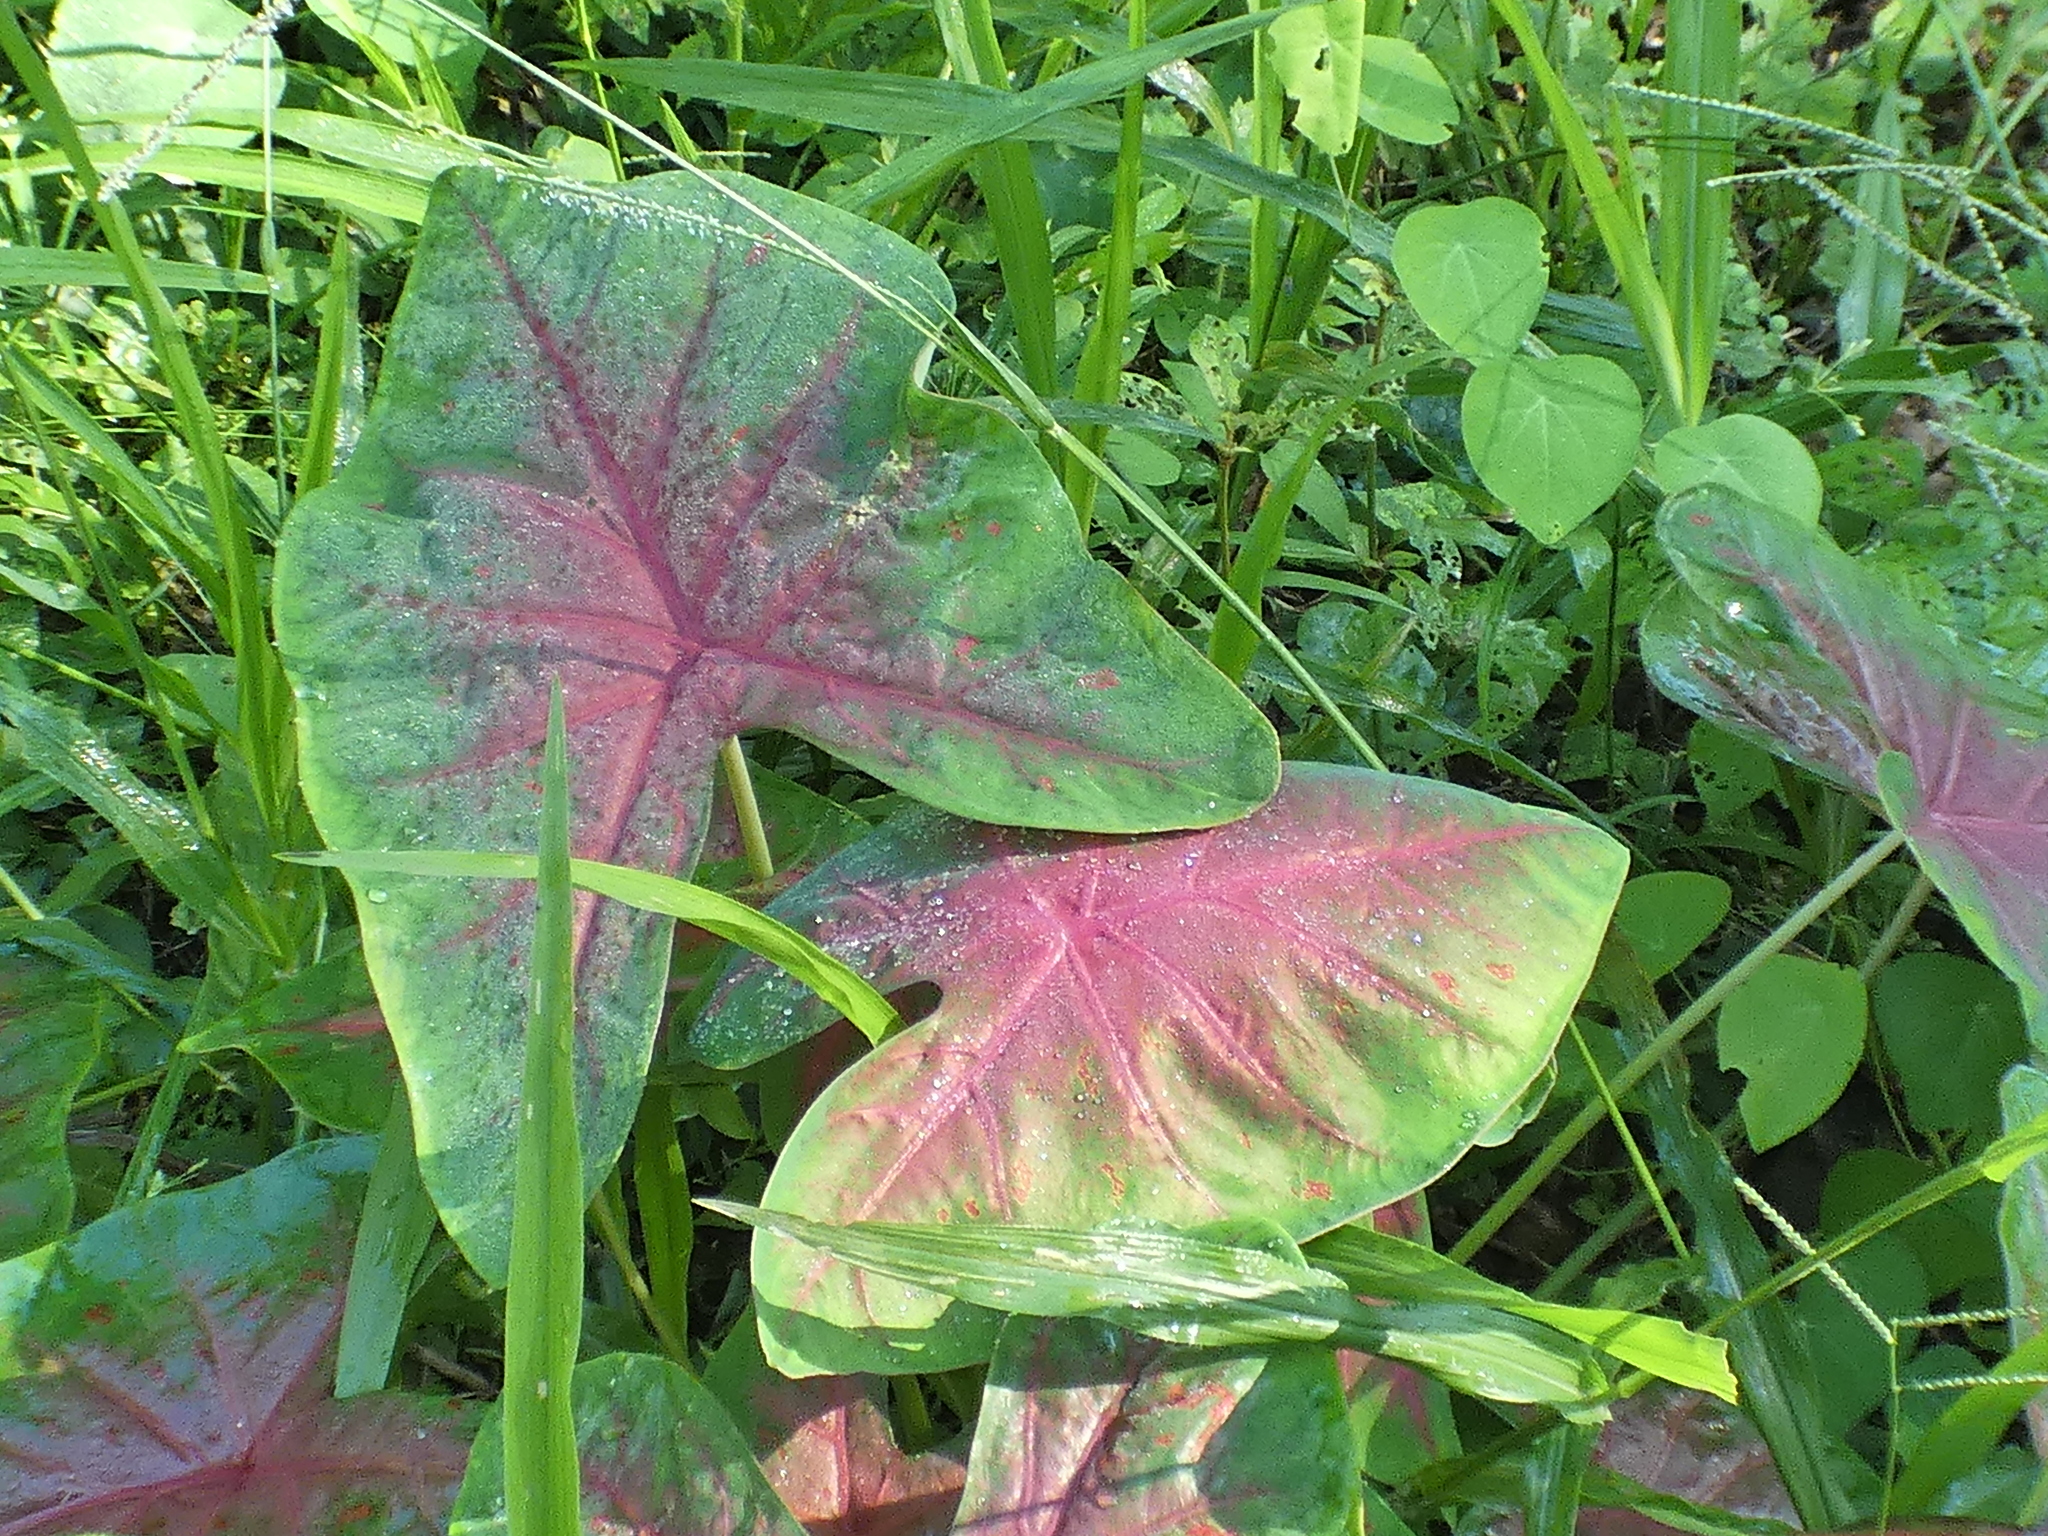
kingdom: Plantae
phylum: Tracheophyta
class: Liliopsida
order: Alismatales
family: Araceae
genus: Caladium
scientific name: Caladium bicolor
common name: Artist's pallet
